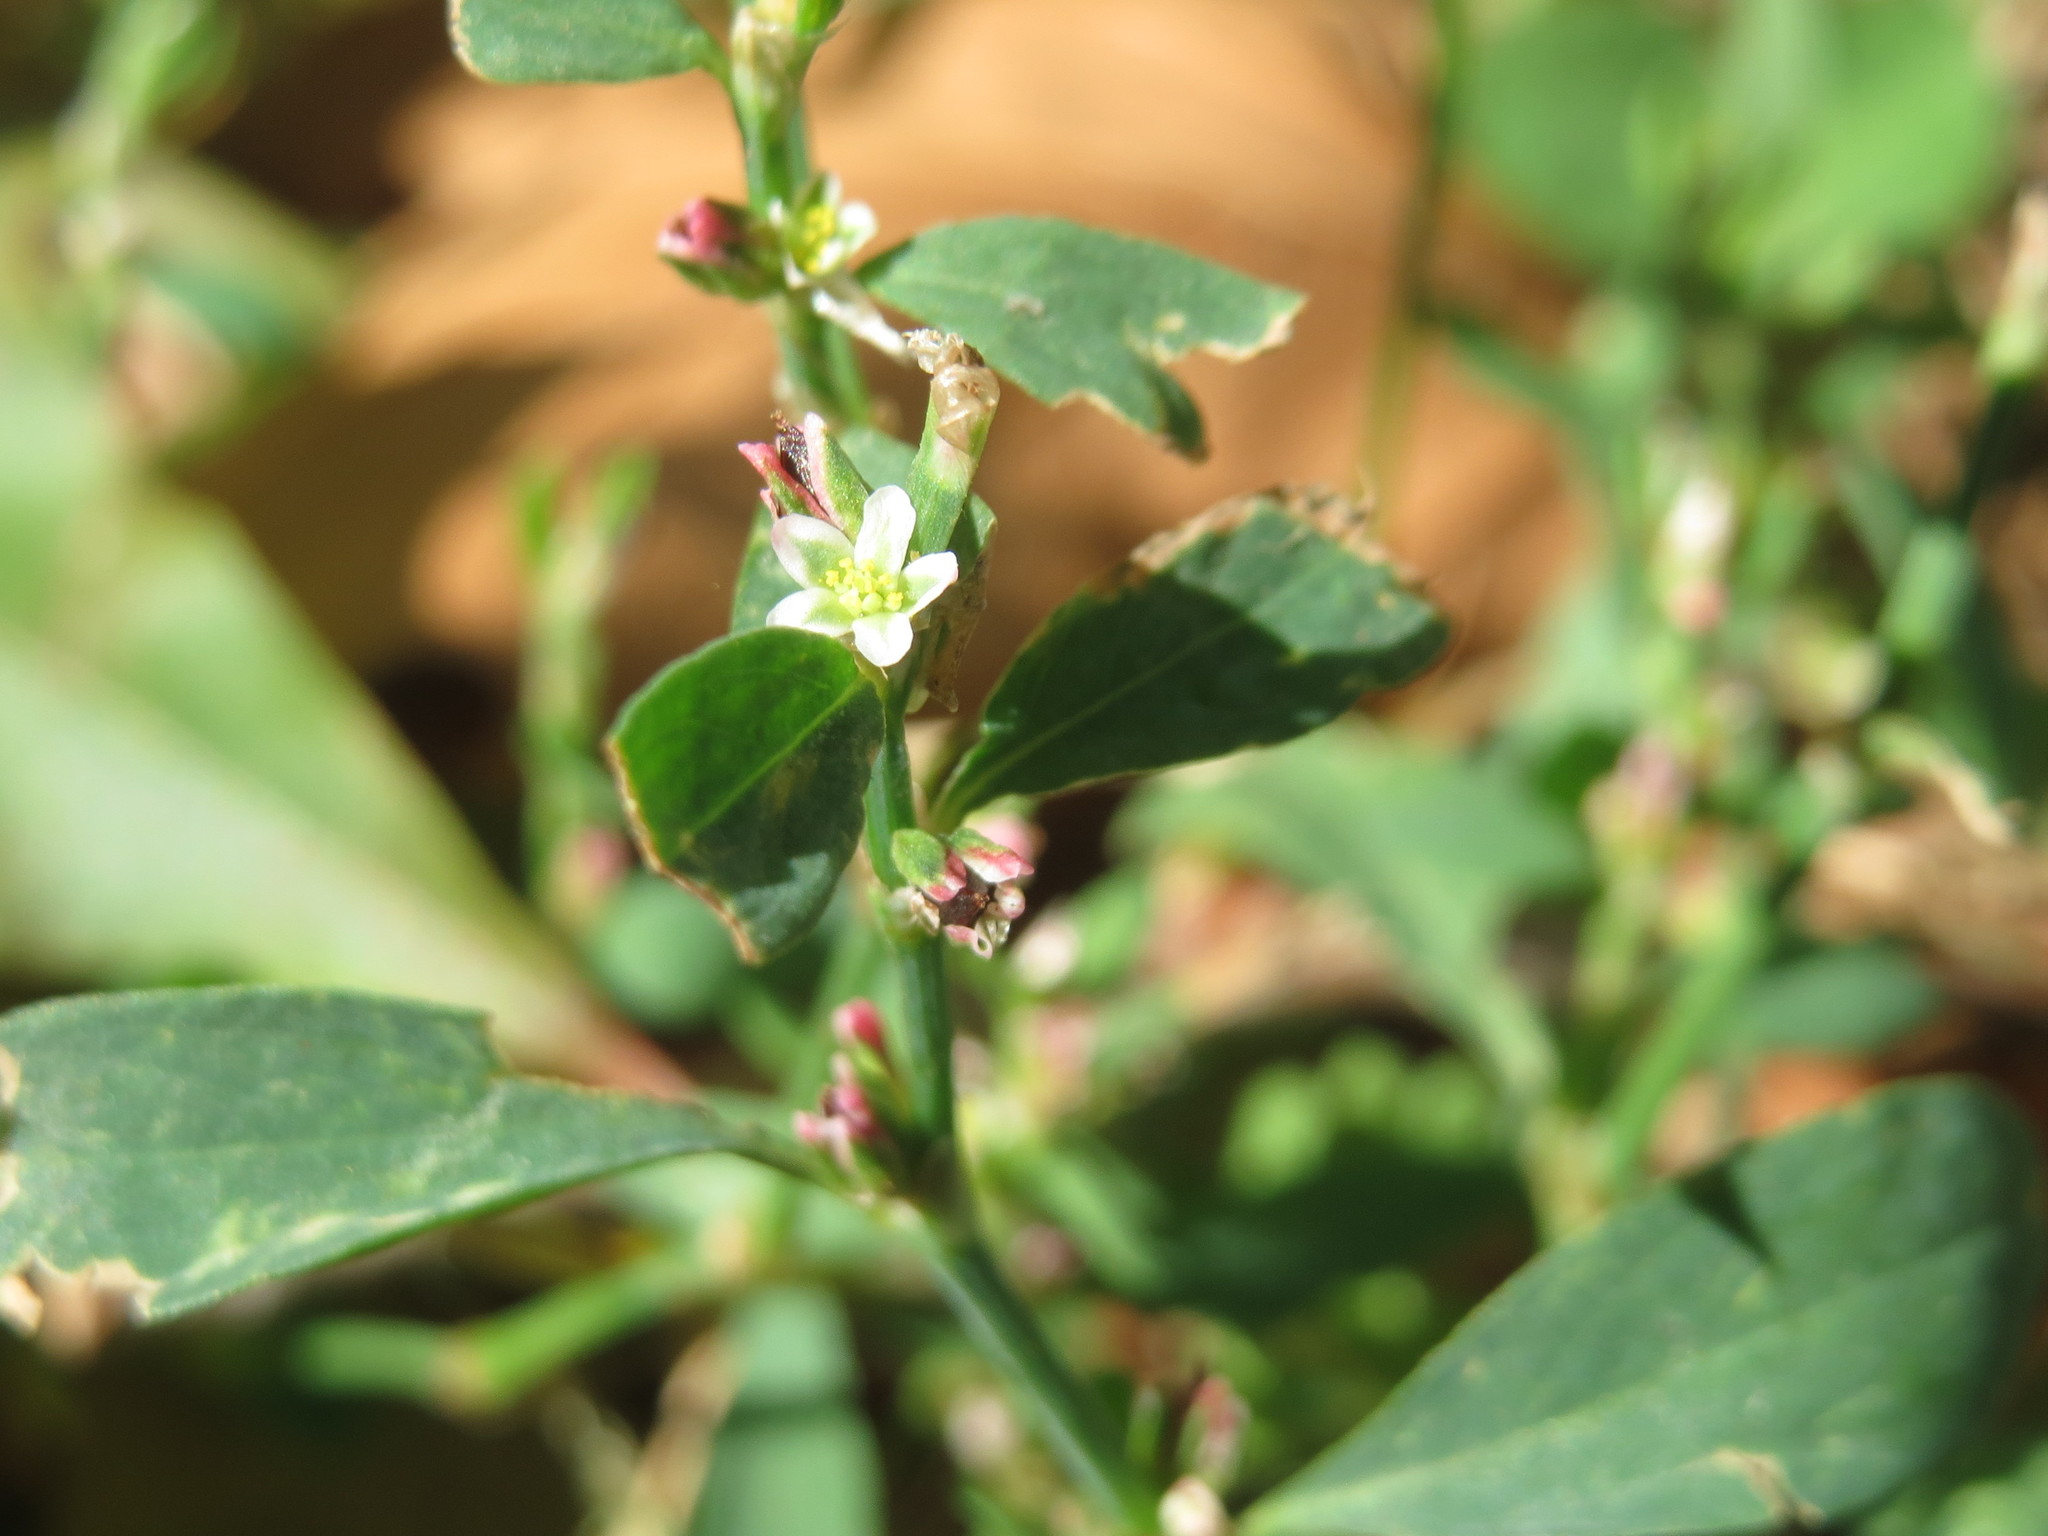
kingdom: Plantae
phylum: Tracheophyta
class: Magnoliopsida
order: Caryophyllales
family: Polygonaceae
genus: Polygonum
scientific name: Polygonum aviculare
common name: Prostrate knotweed
